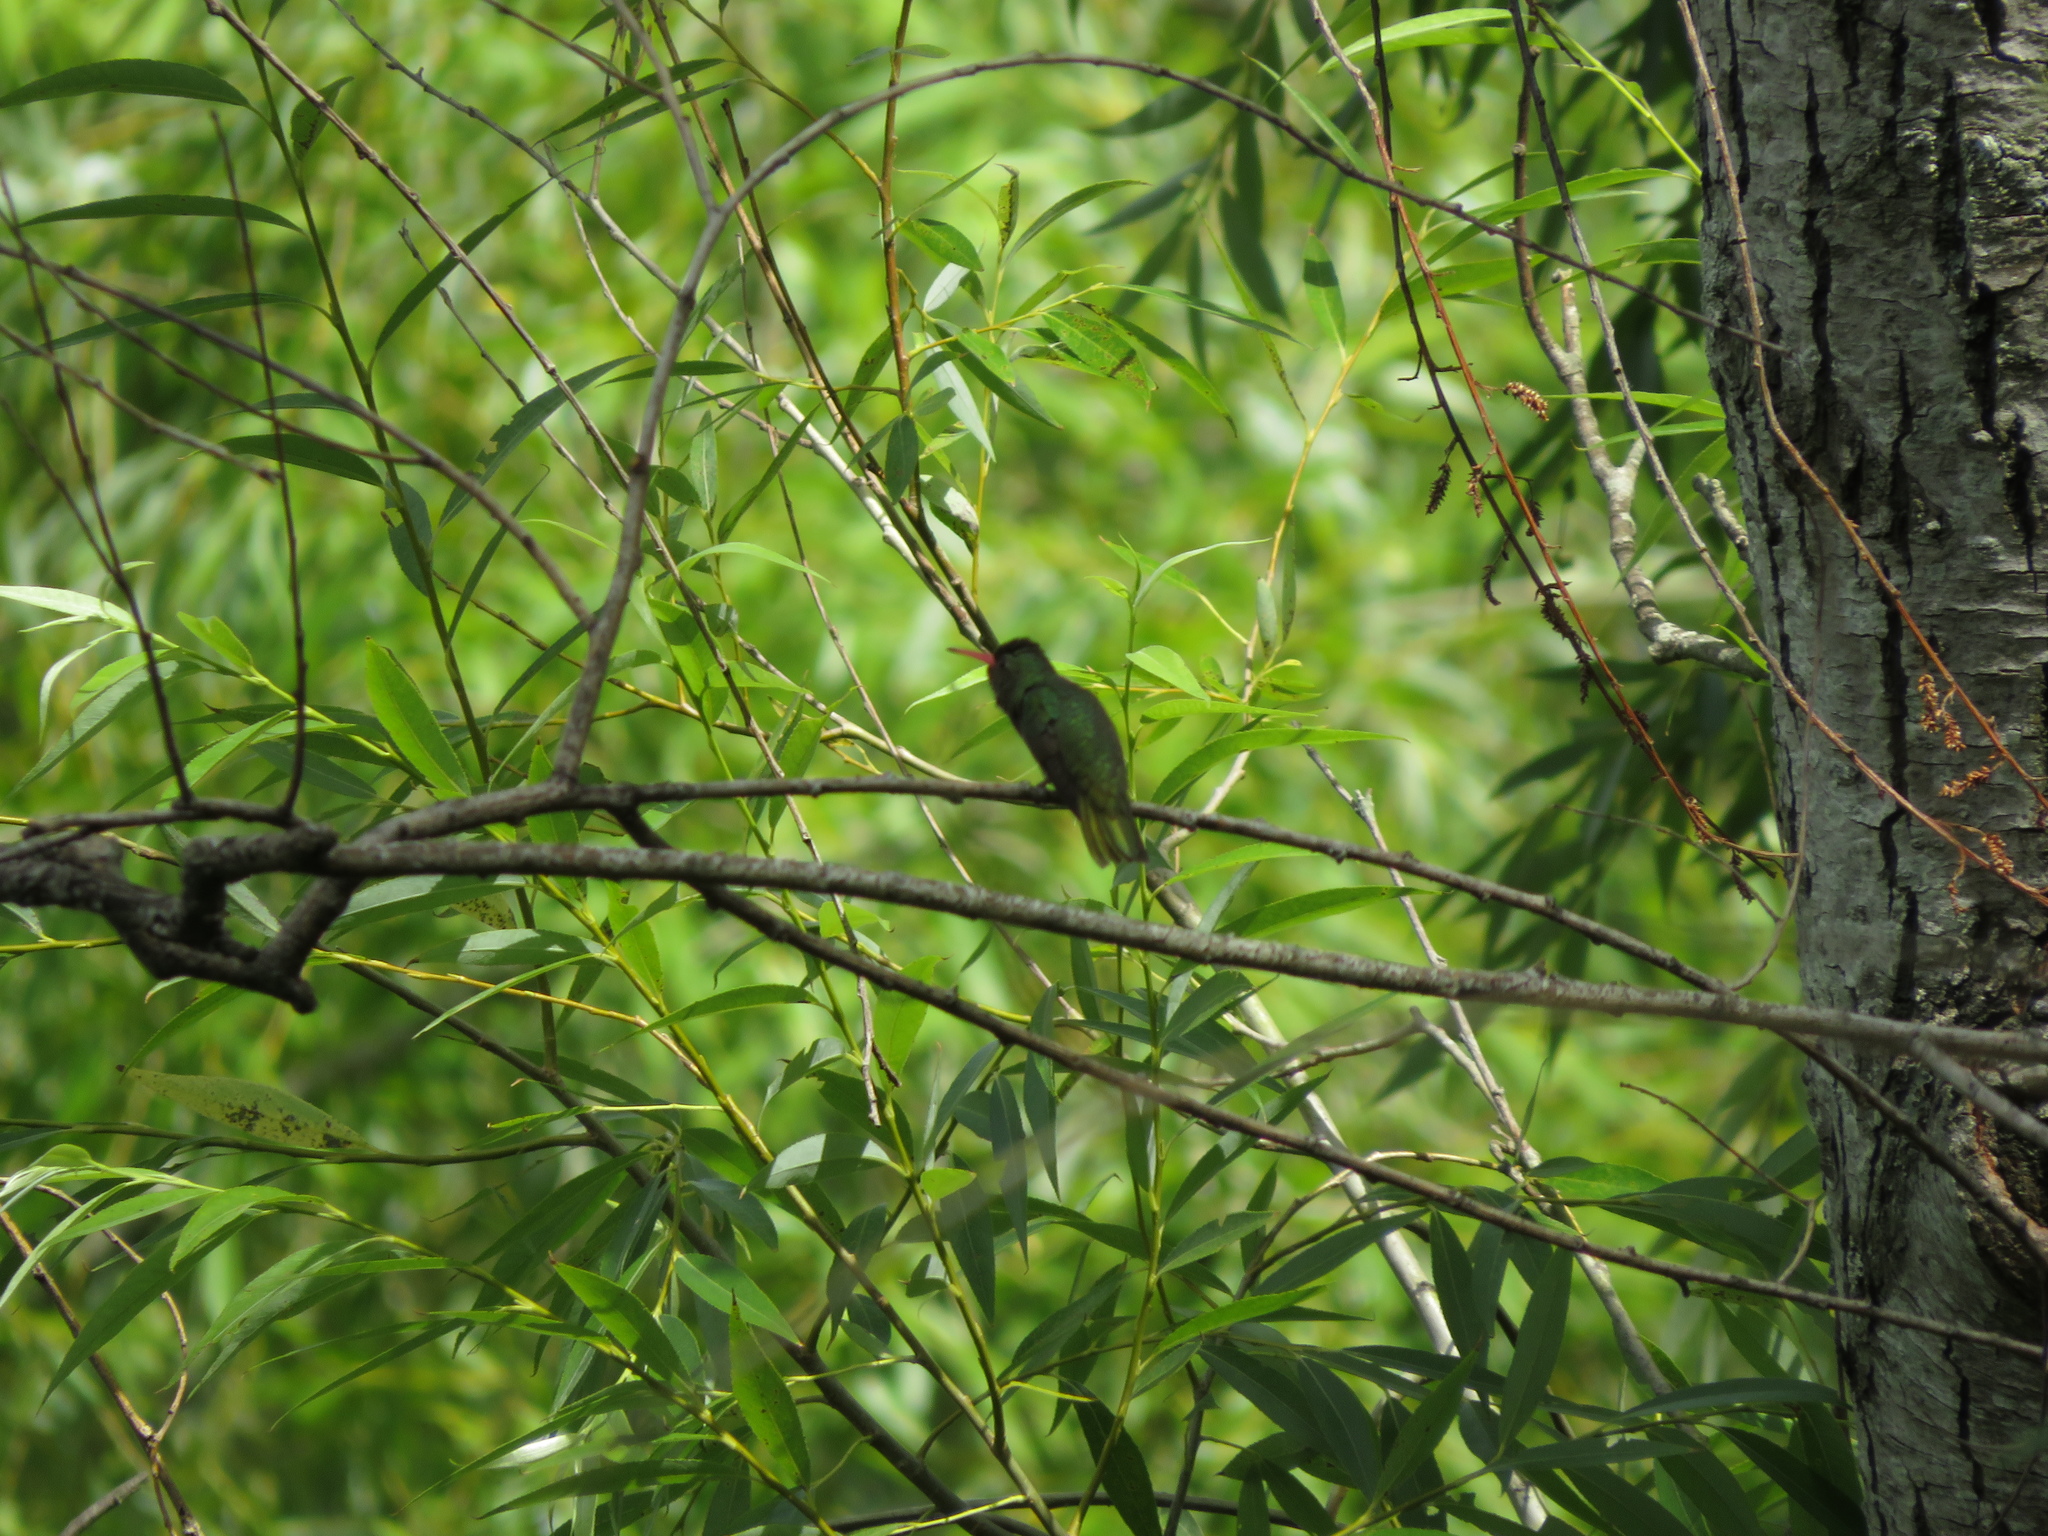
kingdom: Animalia
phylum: Chordata
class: Aves
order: Apodiformes
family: Trochilidae
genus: Hylocharis
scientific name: Hylocharis chrysura
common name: Gilded sapphire
